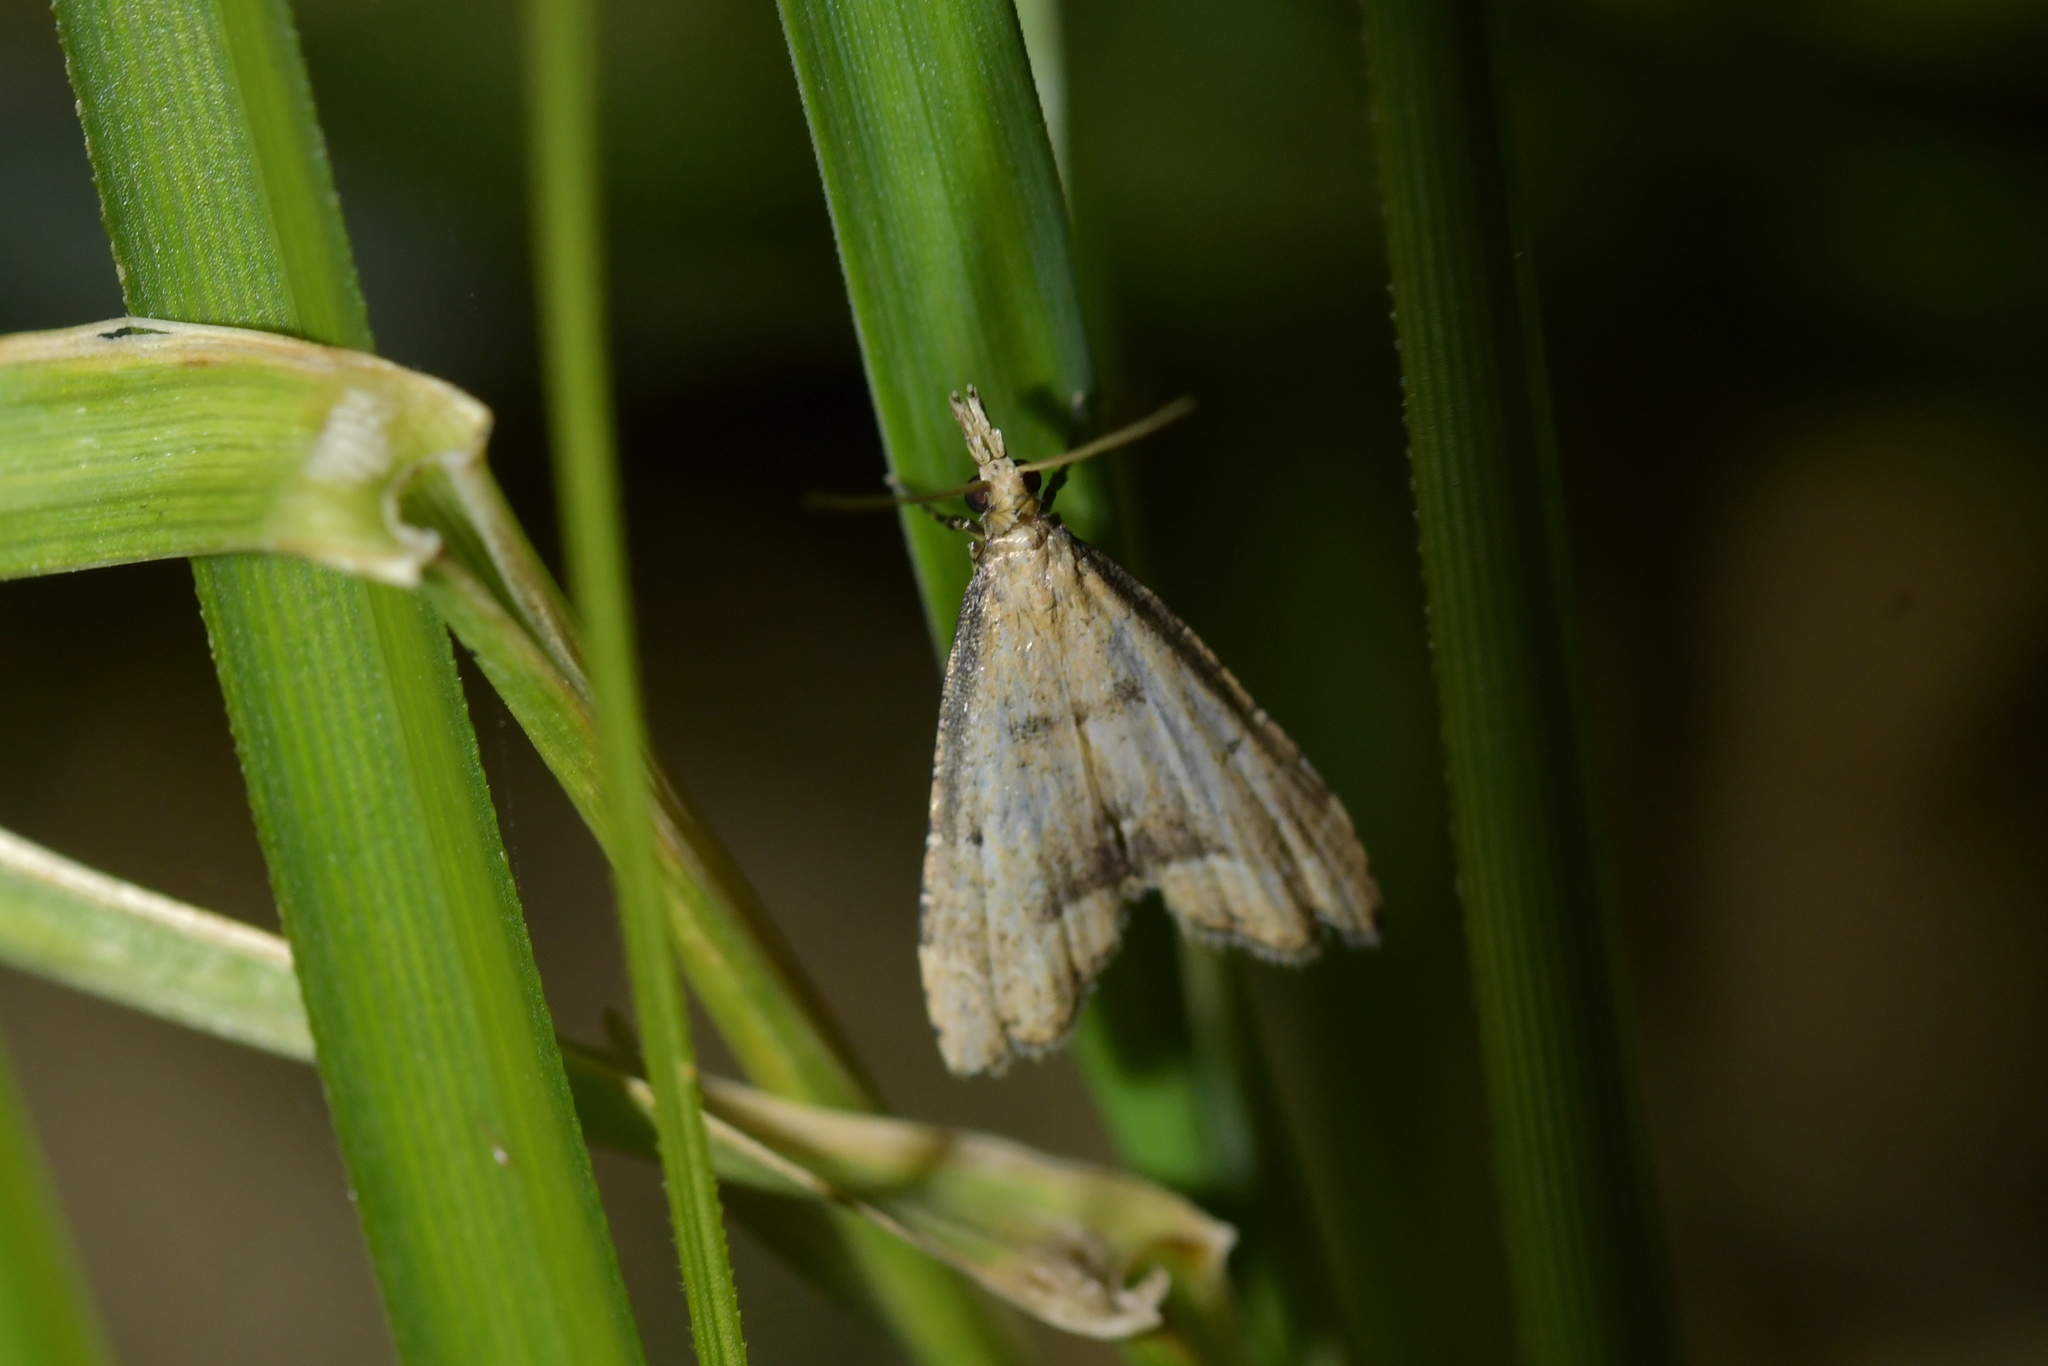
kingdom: Animalia
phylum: Arthropoda
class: Insecta
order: Lepidoptera
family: Crambidae
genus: Diplopseustis
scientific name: Diplopseustis perieresalis
